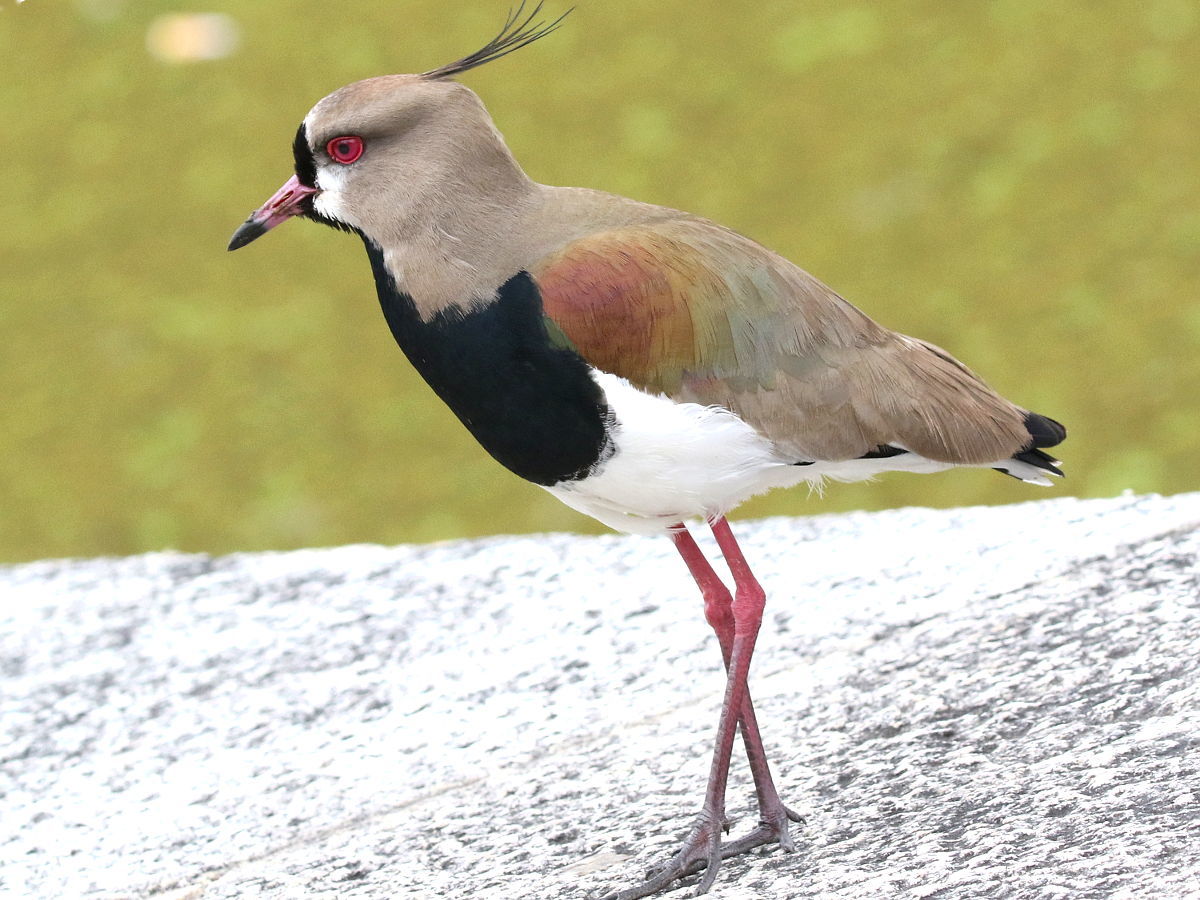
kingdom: Animalia
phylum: Chordata
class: Aves
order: Charadriiformes
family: Charadriidae
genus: Vanellus
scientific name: Vanellus chilensis
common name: Southern lapwing
